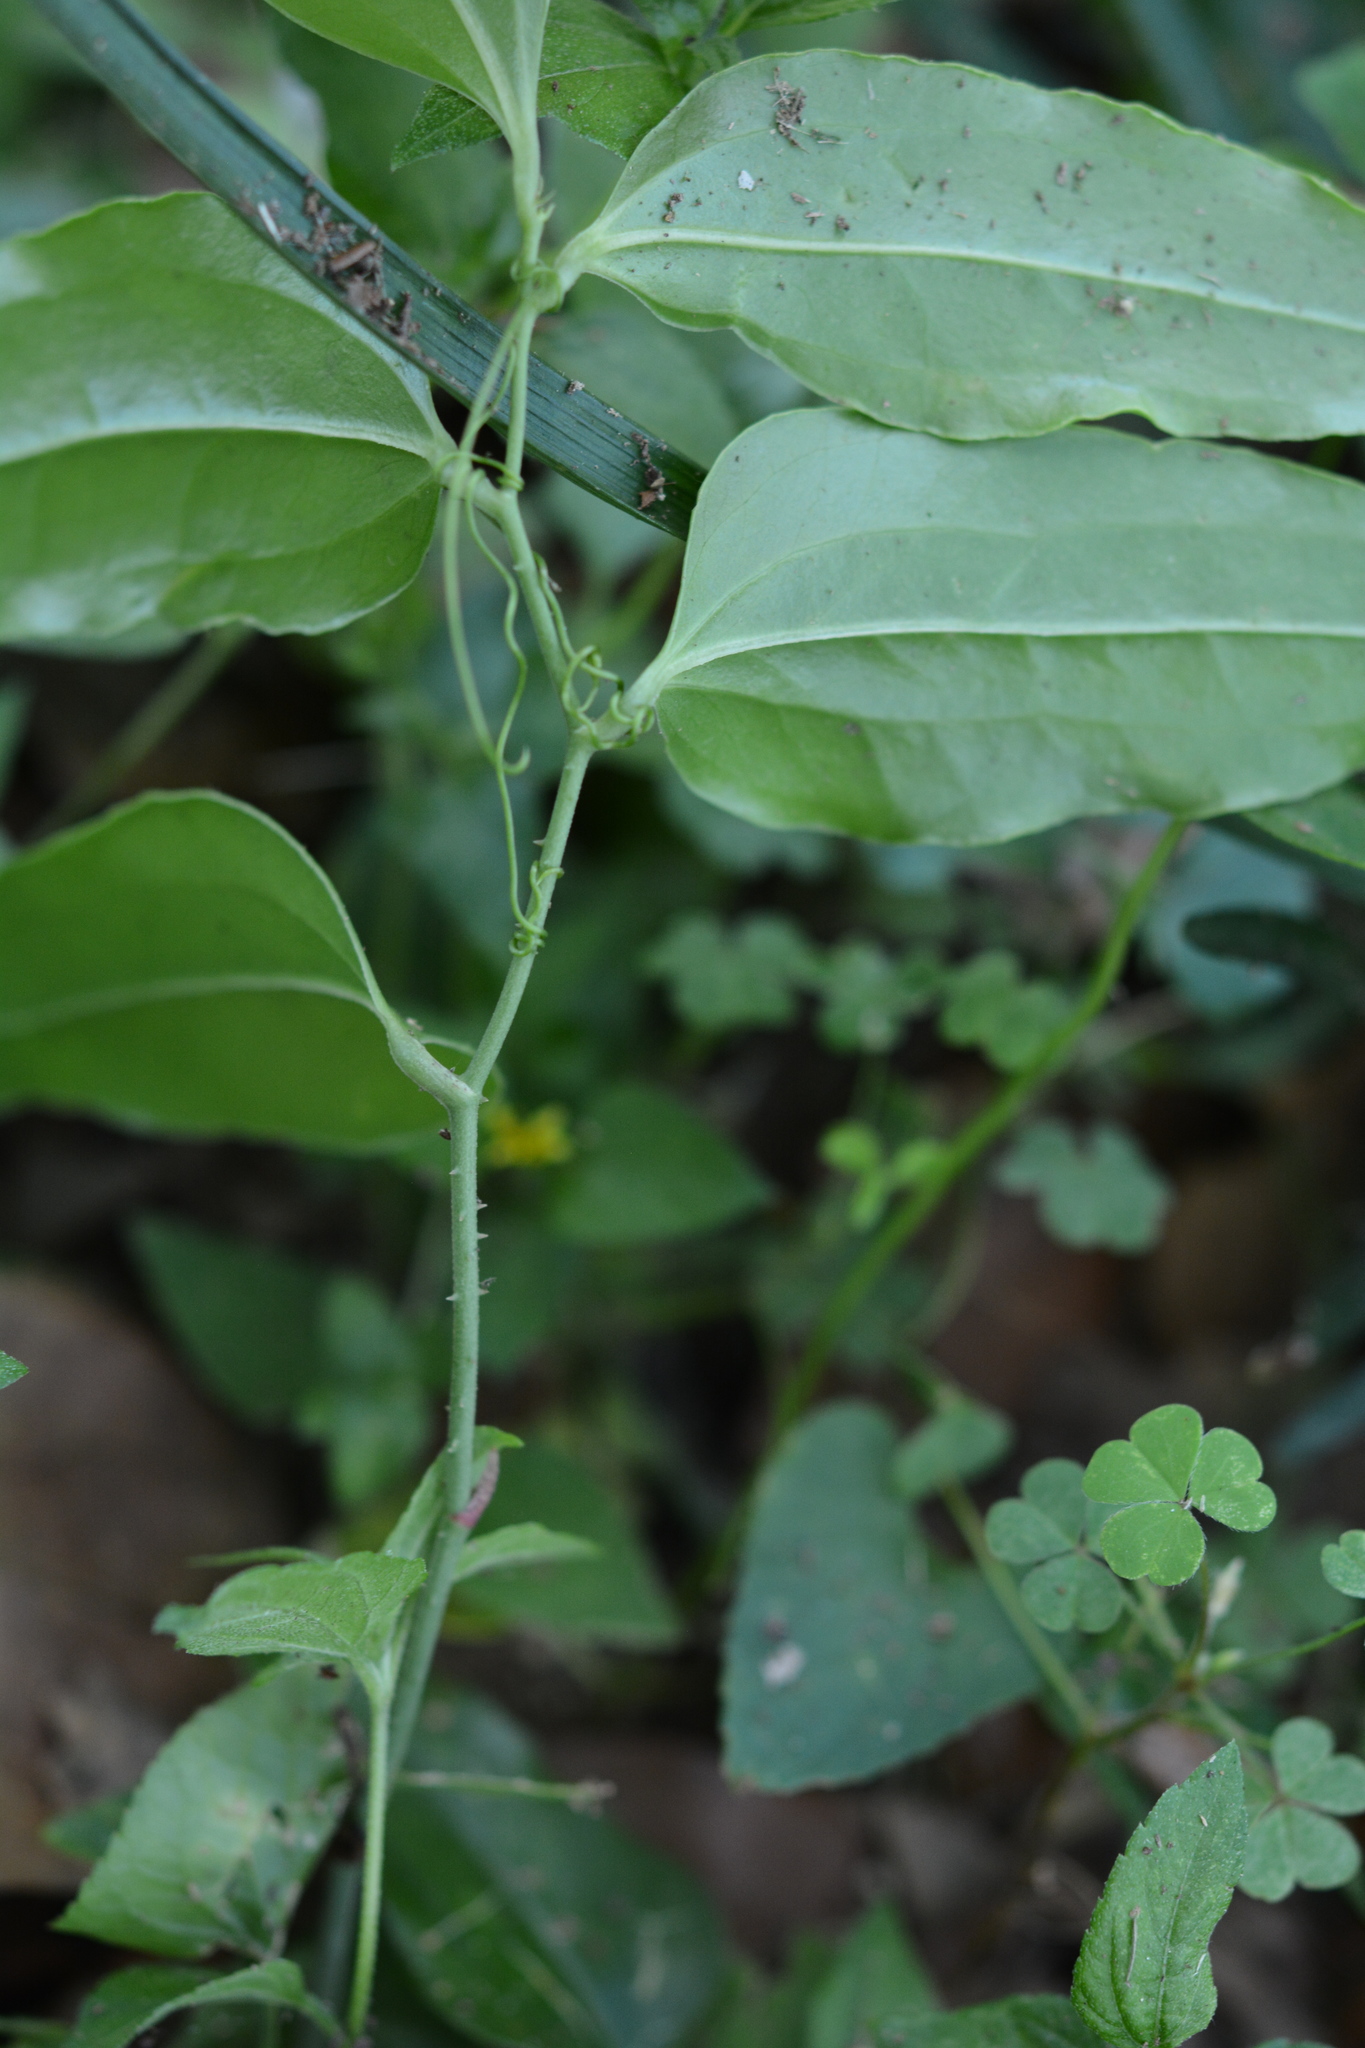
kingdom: Plantae
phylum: Tracheophyta
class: Liliopsida
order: Liliales
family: Smilacaceae
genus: Smilax
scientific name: Smilax maritima
